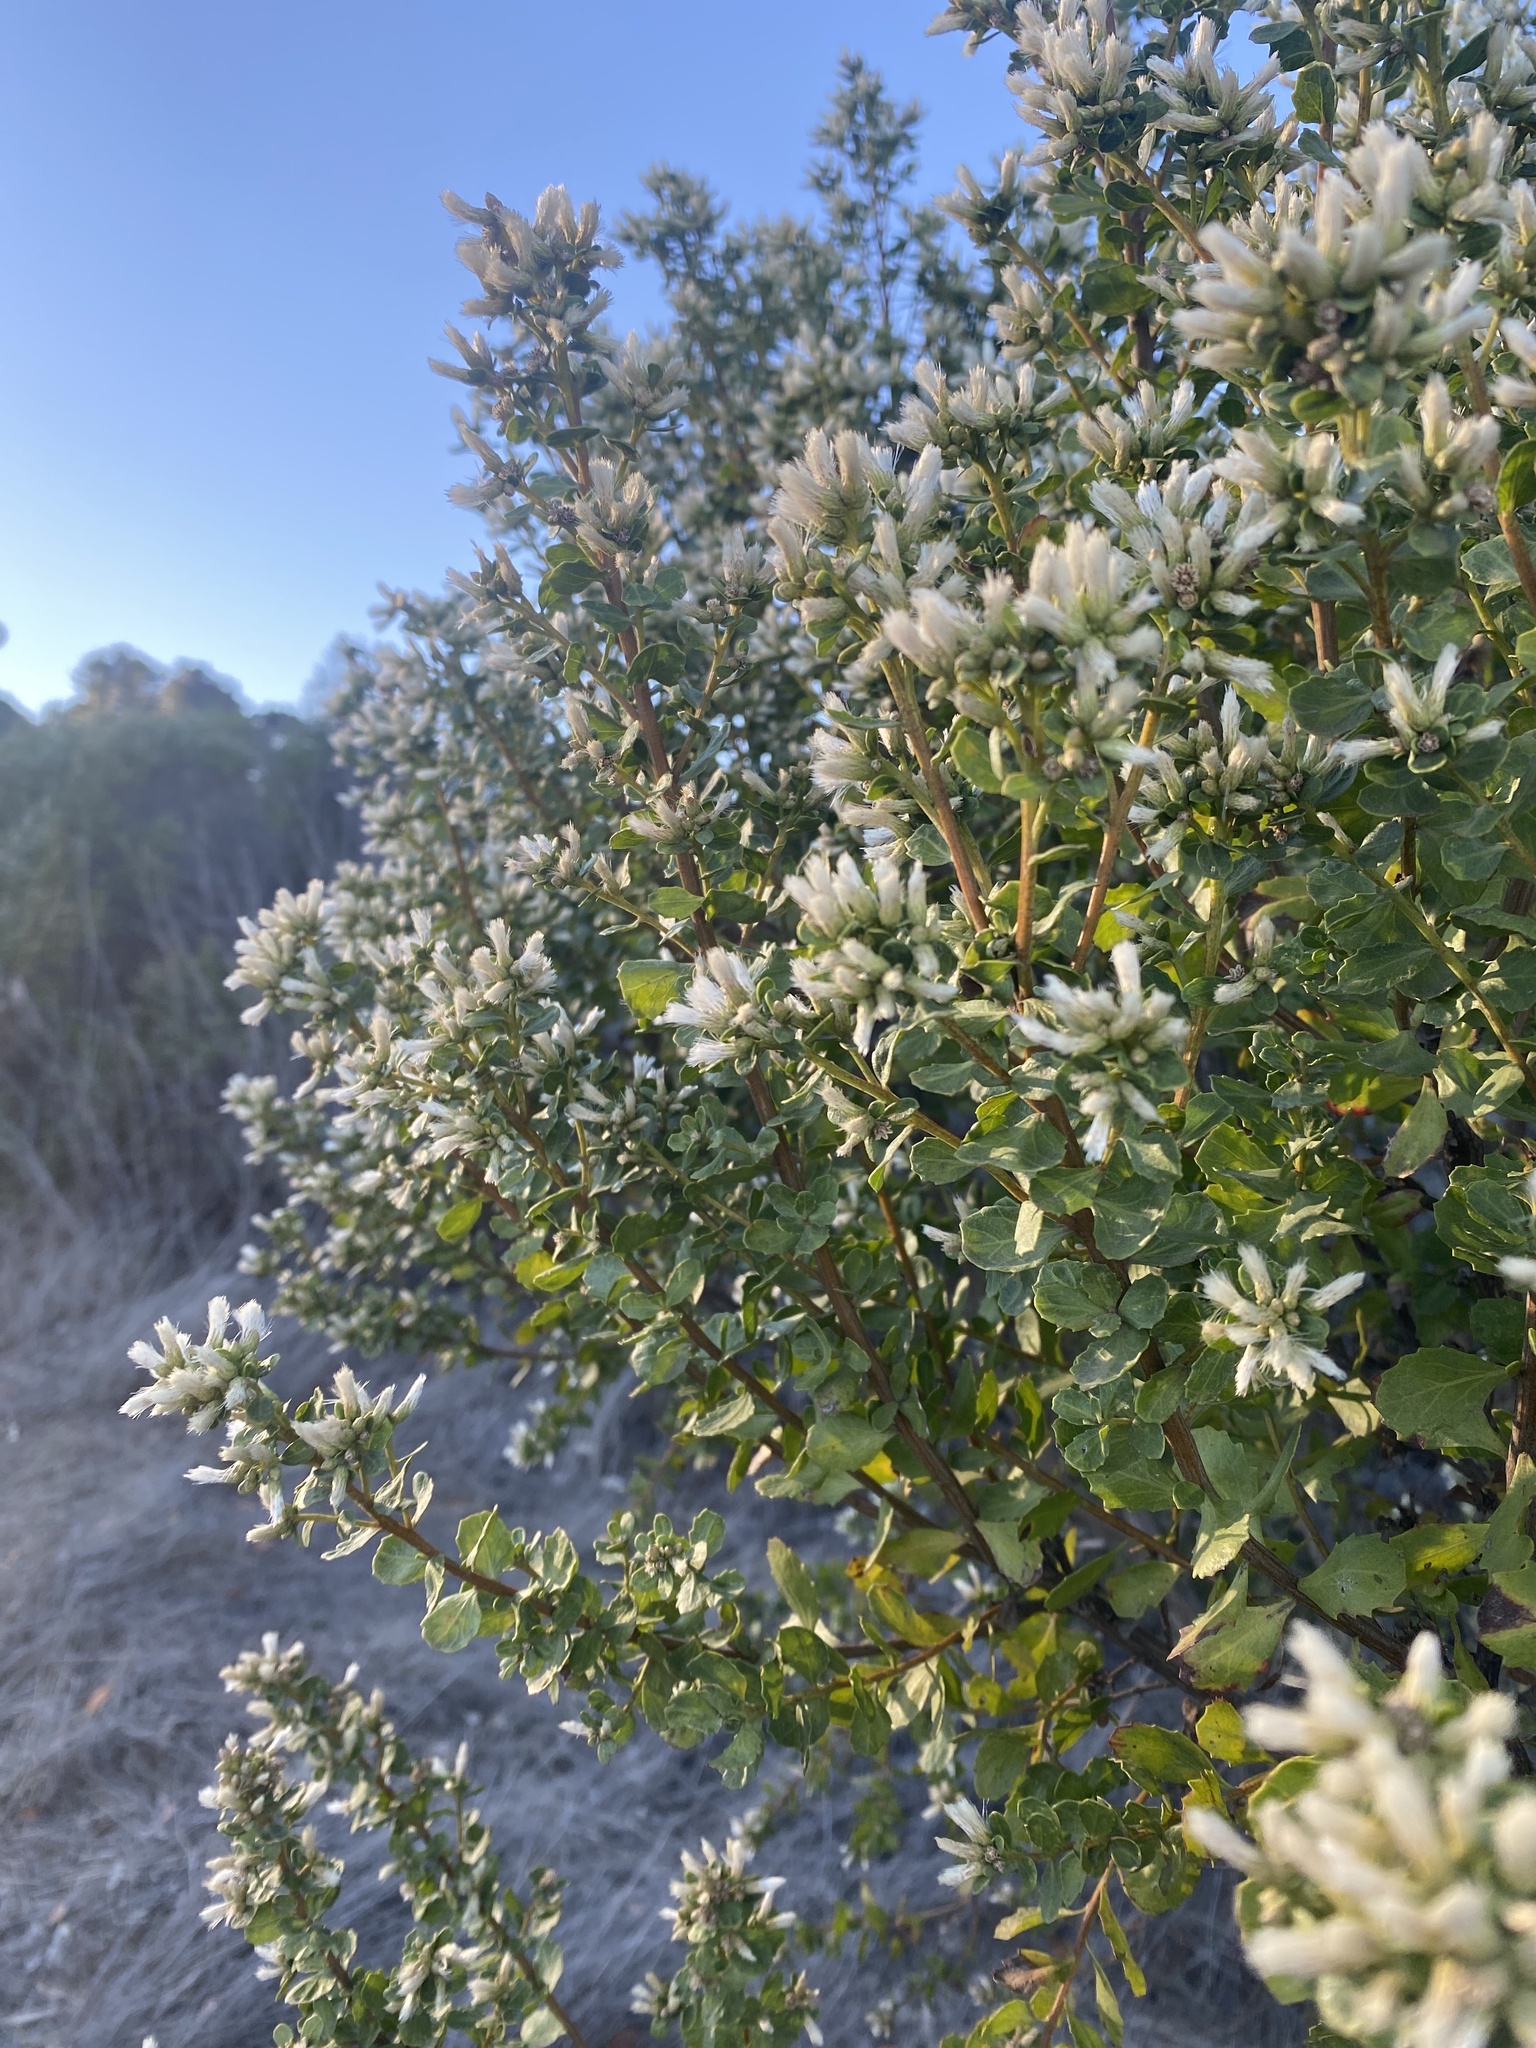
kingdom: Plantae
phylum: Tracheophyta
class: Magnoliopsida
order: Asterales
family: Asteraceae
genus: Baccharis
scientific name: Baccharis pilularis
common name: Coyotebrush
